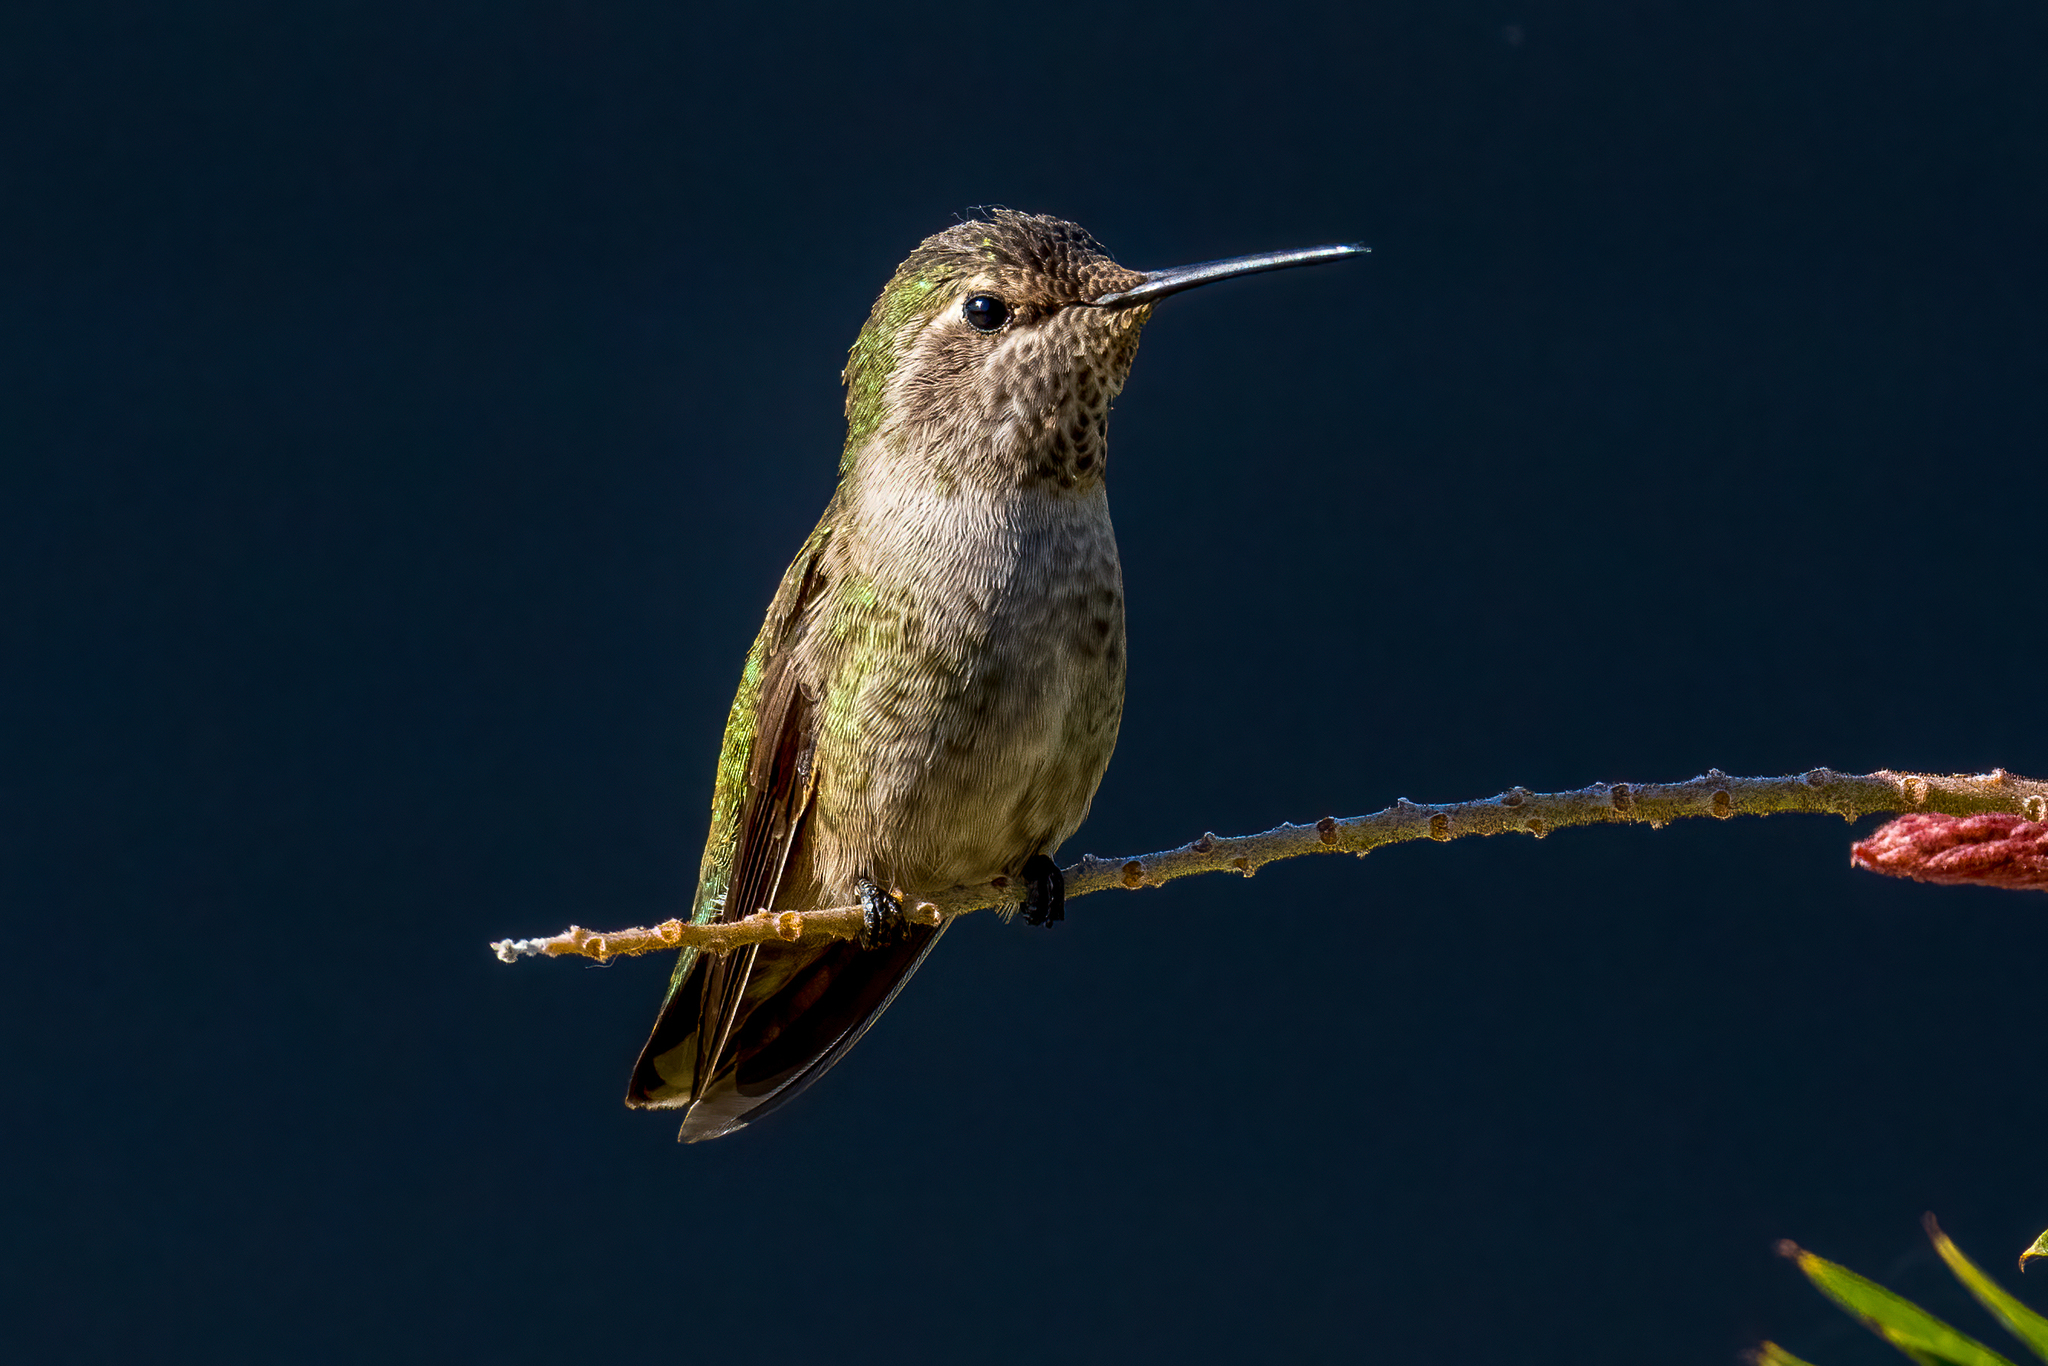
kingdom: Animalia
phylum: Chordata
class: Aves
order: Apodiformes
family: Trochilidae
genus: Calypte
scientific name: Calypte anna
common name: Anna's hummingbird
